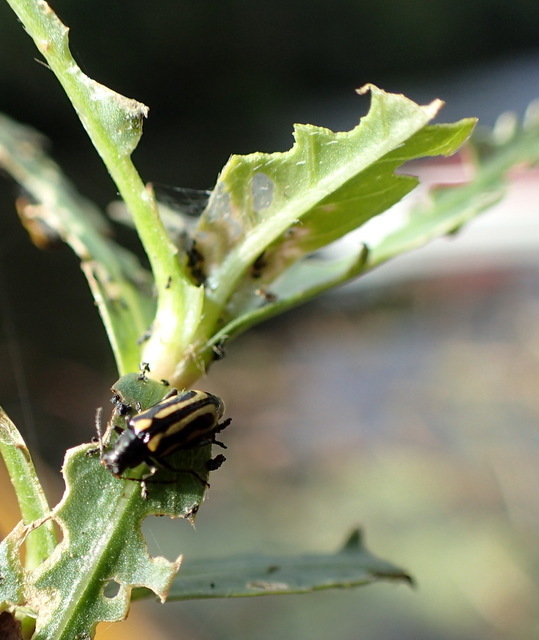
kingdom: Animalia
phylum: Arthropoda
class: Insecta
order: Coleoptera
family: Chrysomelidae
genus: Agasicles
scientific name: Agasicles hygrophila
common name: Alligatorweed flea beetle
